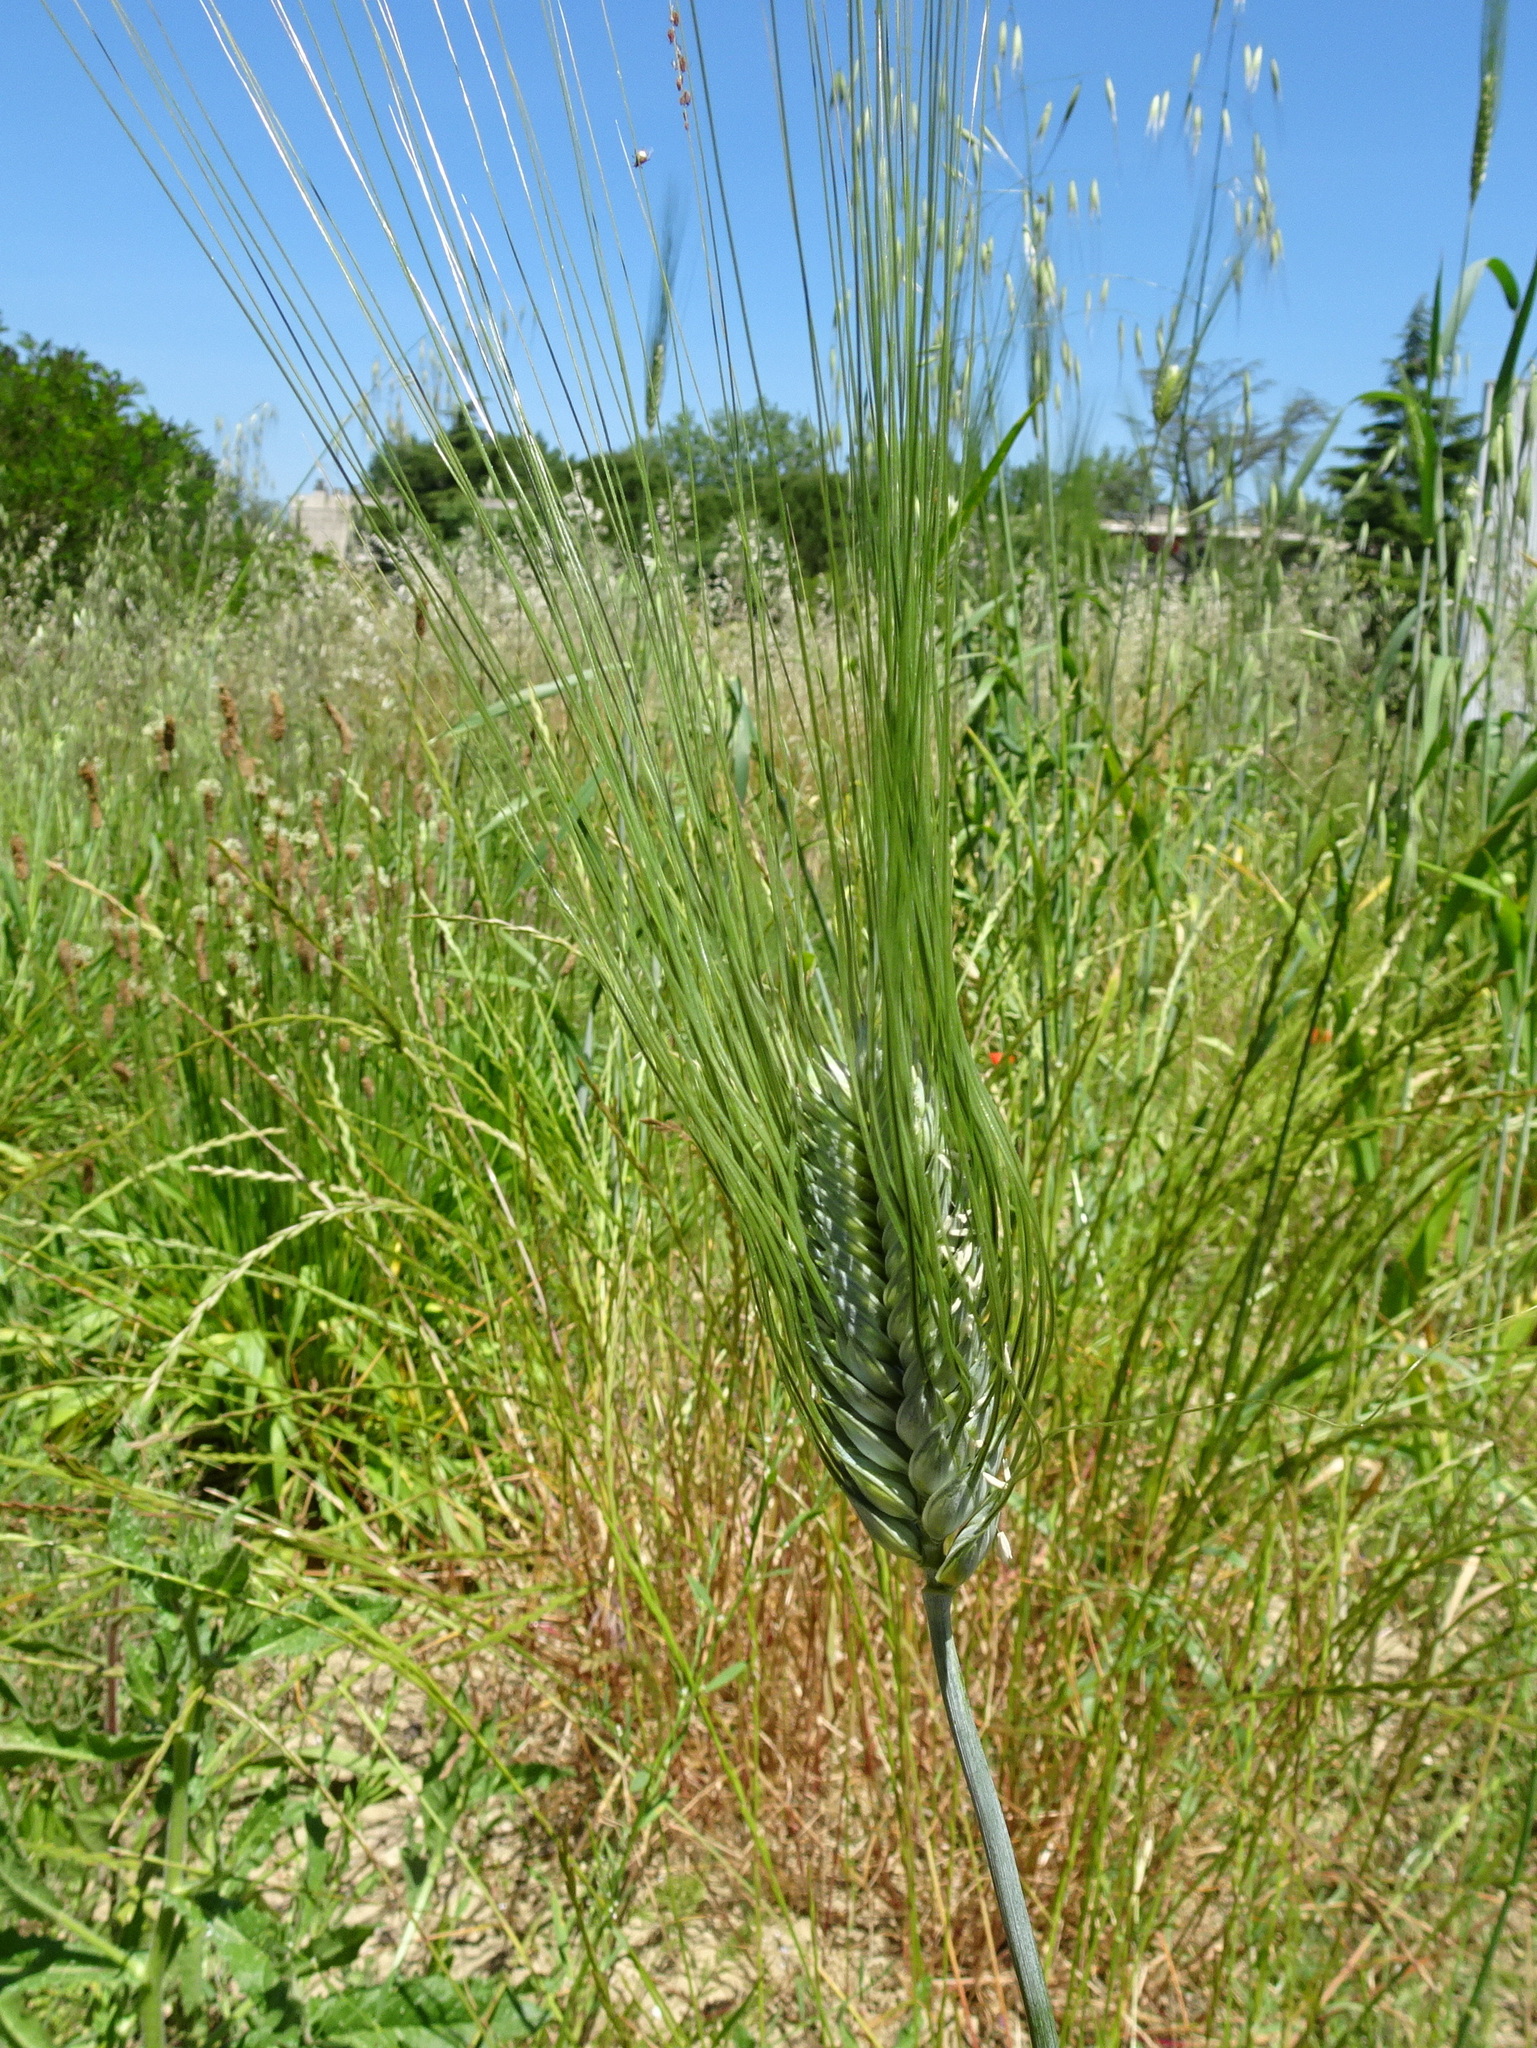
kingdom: Plantae
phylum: Tracheophyta
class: Liliopsida
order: Poales
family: Poaceae
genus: Triticum
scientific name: Triticum turgidum
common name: Rivet wheat
